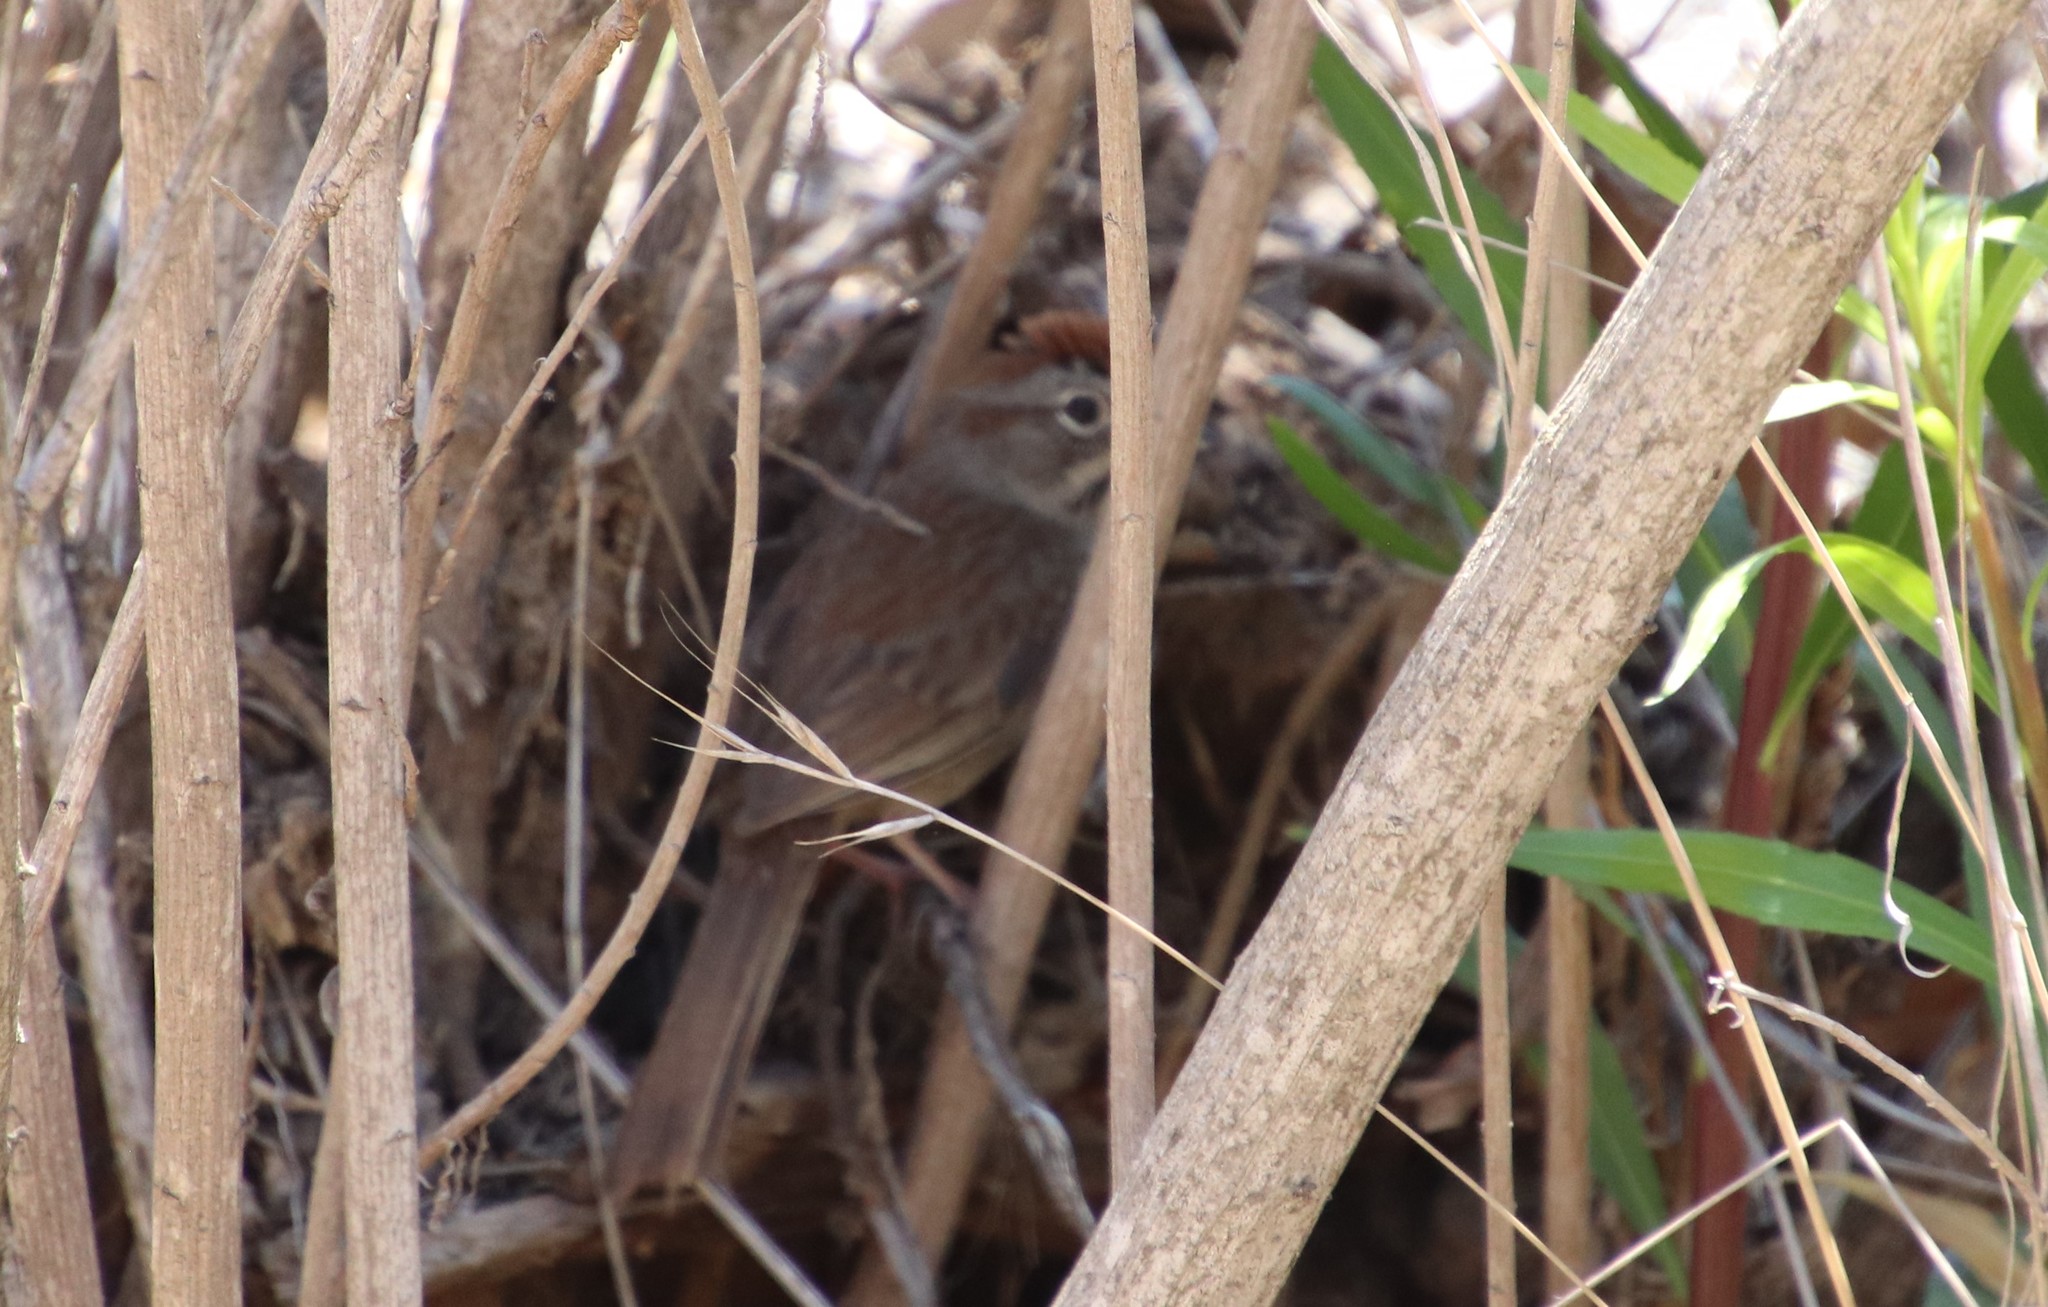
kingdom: Animalia
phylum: Chordata
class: Aves
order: Passeriformes
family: Passerellidae
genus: Aimophila
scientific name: Aimophila ruficeps
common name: Rufous-crowned sparrow
